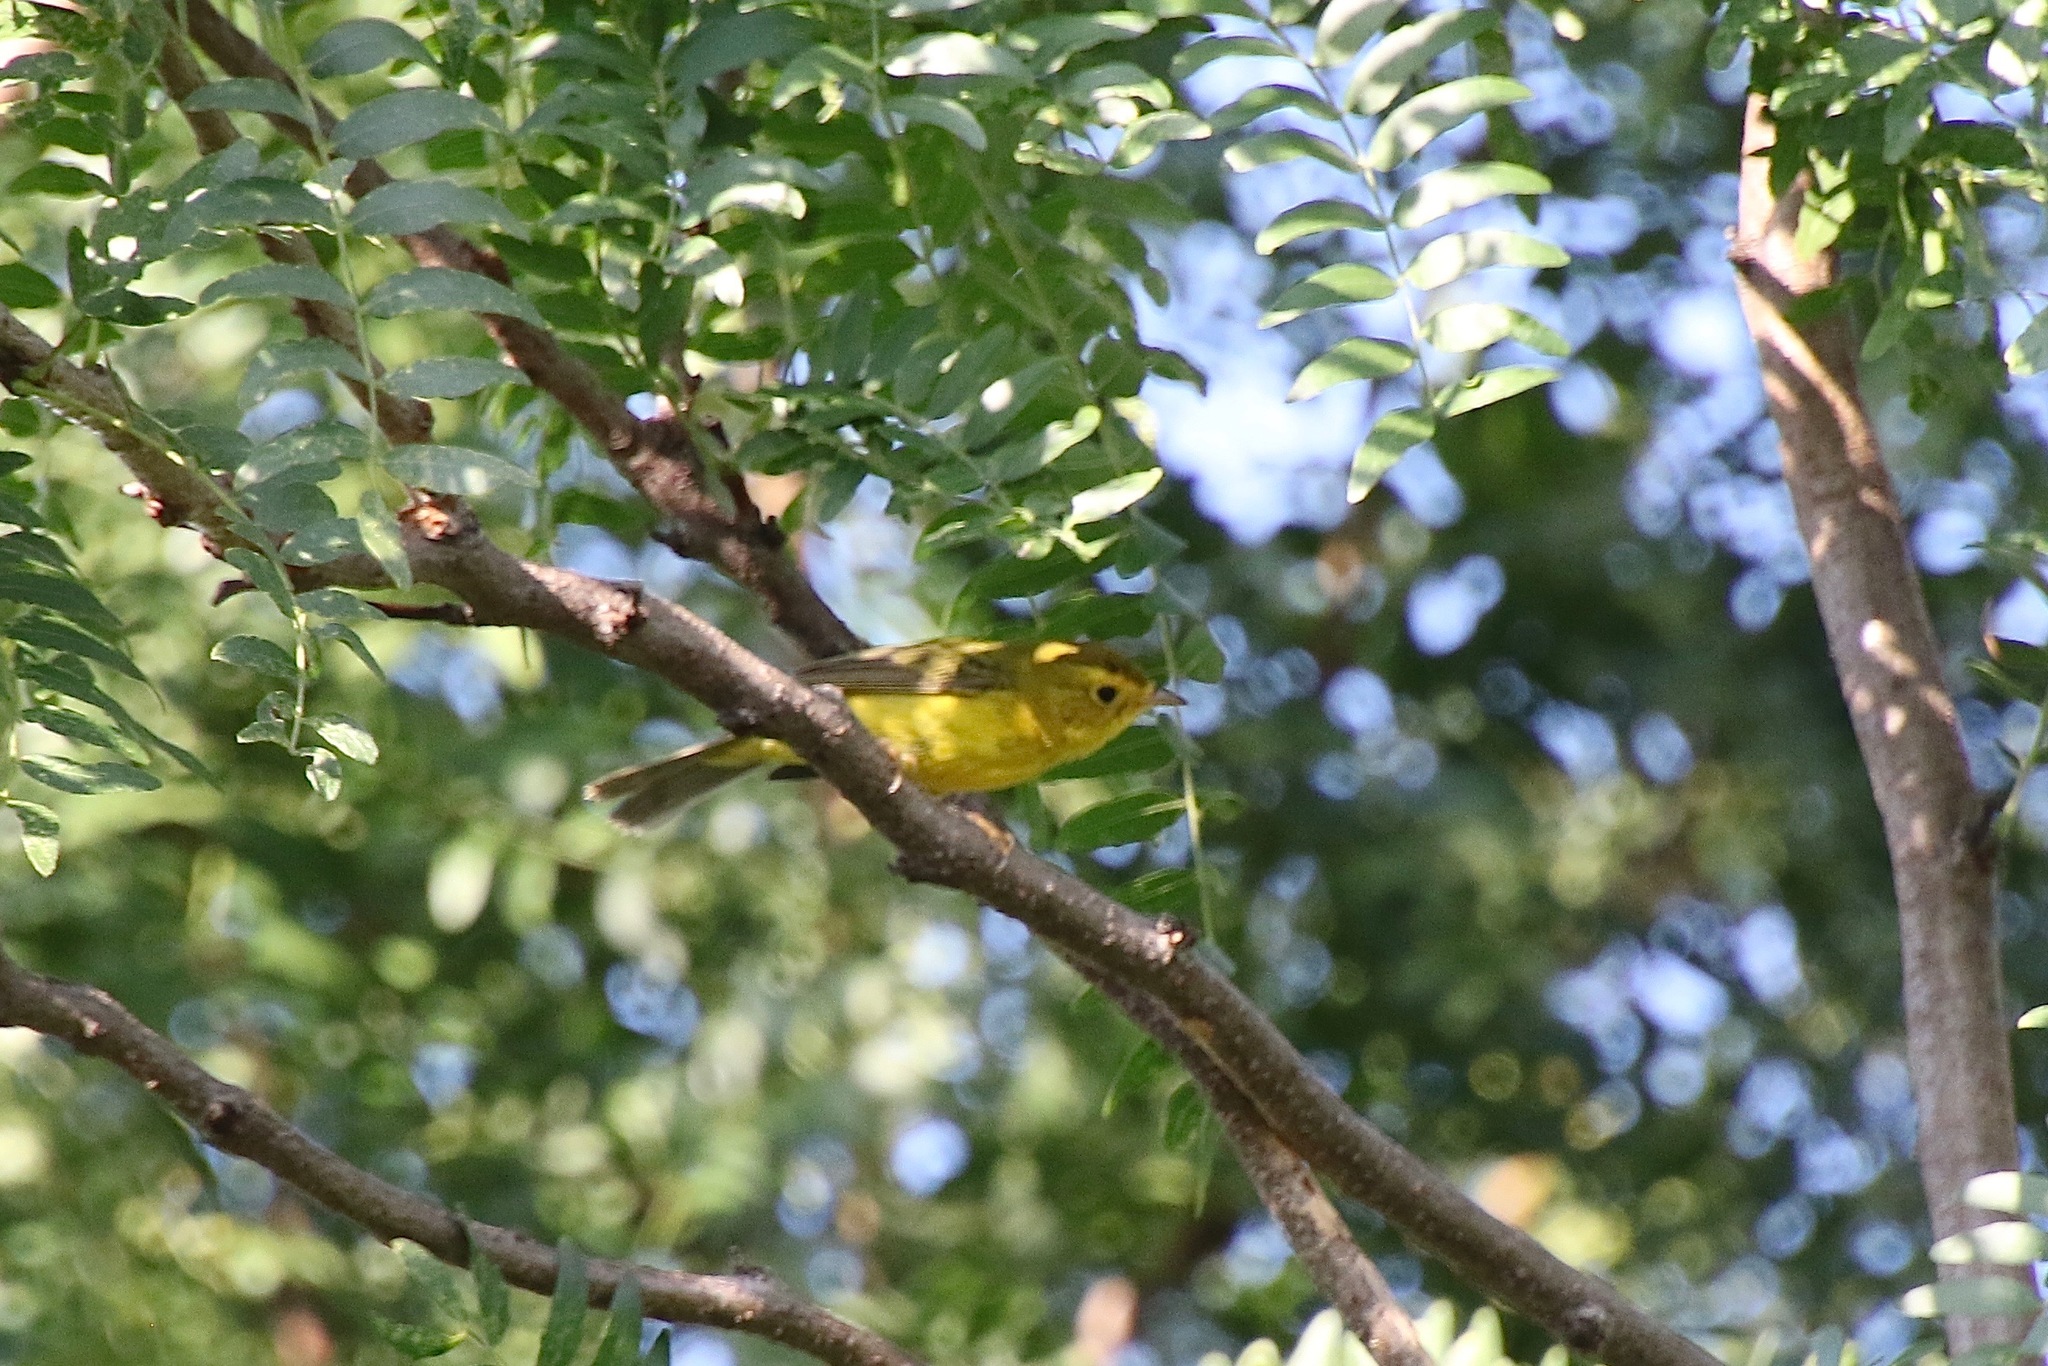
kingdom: Animalia
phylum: Chordata
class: Aves
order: Passeriformes
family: Parulidae
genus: Cardellina
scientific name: Cardellina pusilla
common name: Wilson's warbler
